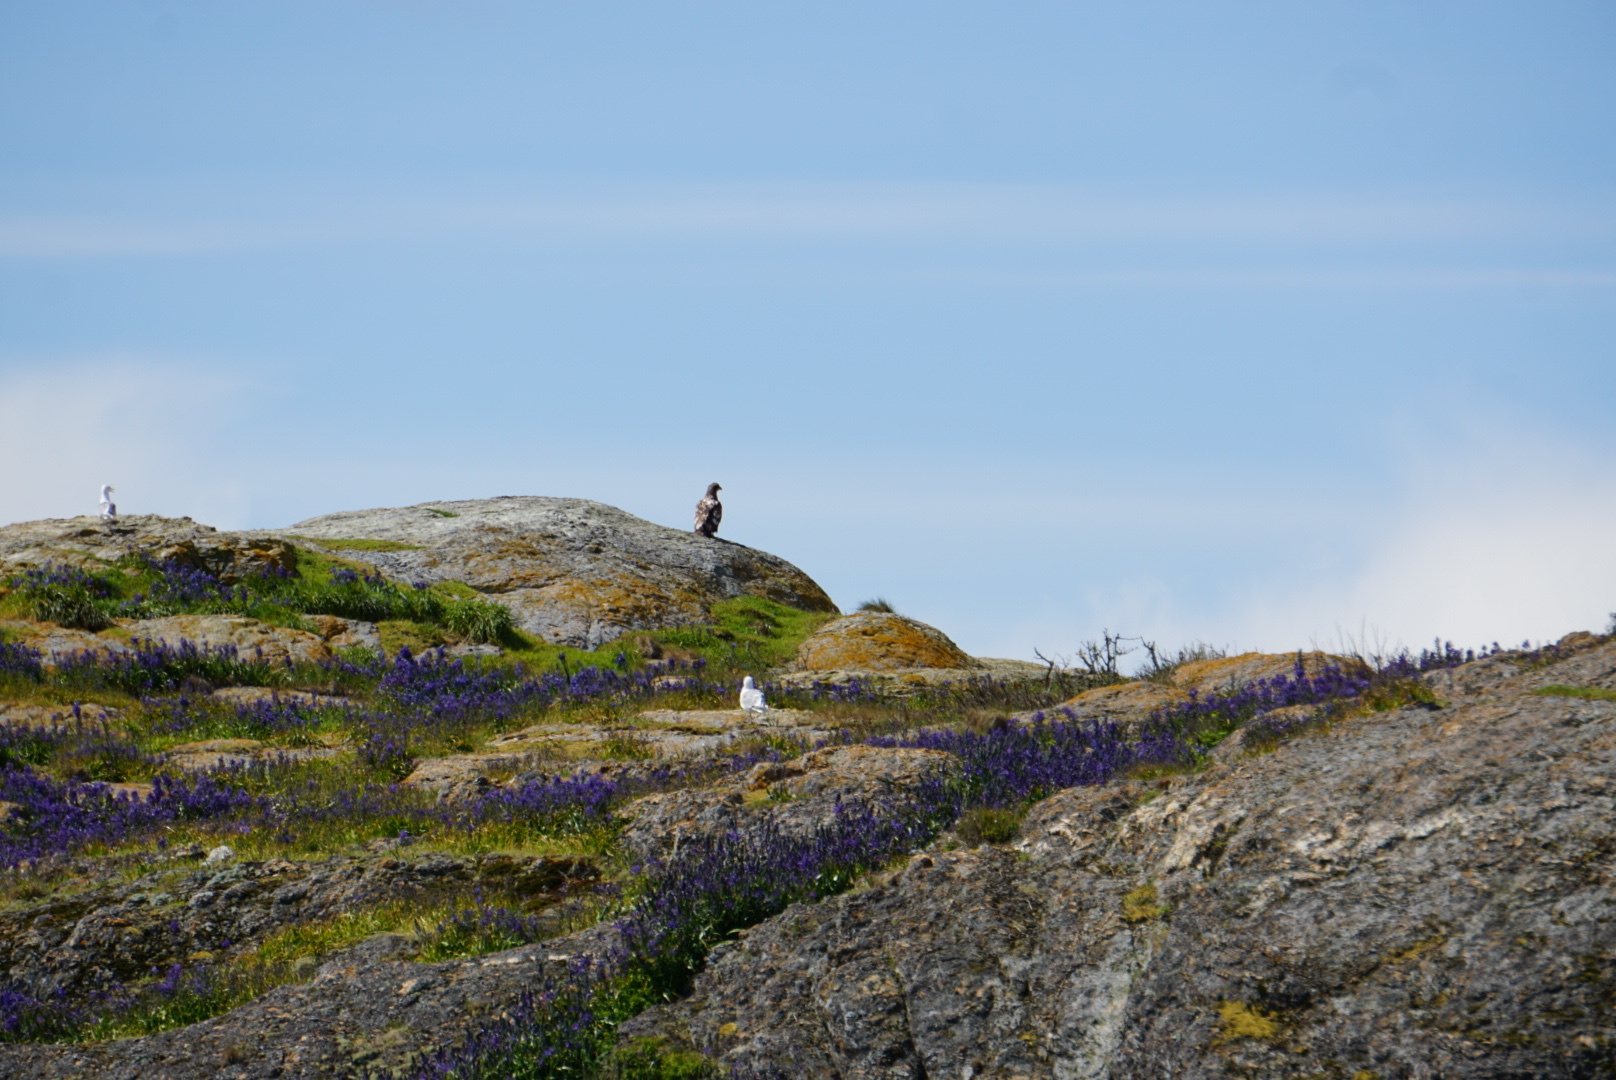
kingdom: Animalia
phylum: Chordata
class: Aves
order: Accipitriformes
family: Accipitridae
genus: Haliaeetus
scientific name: Haliaeetus leucocephalus
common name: Bald eagle
